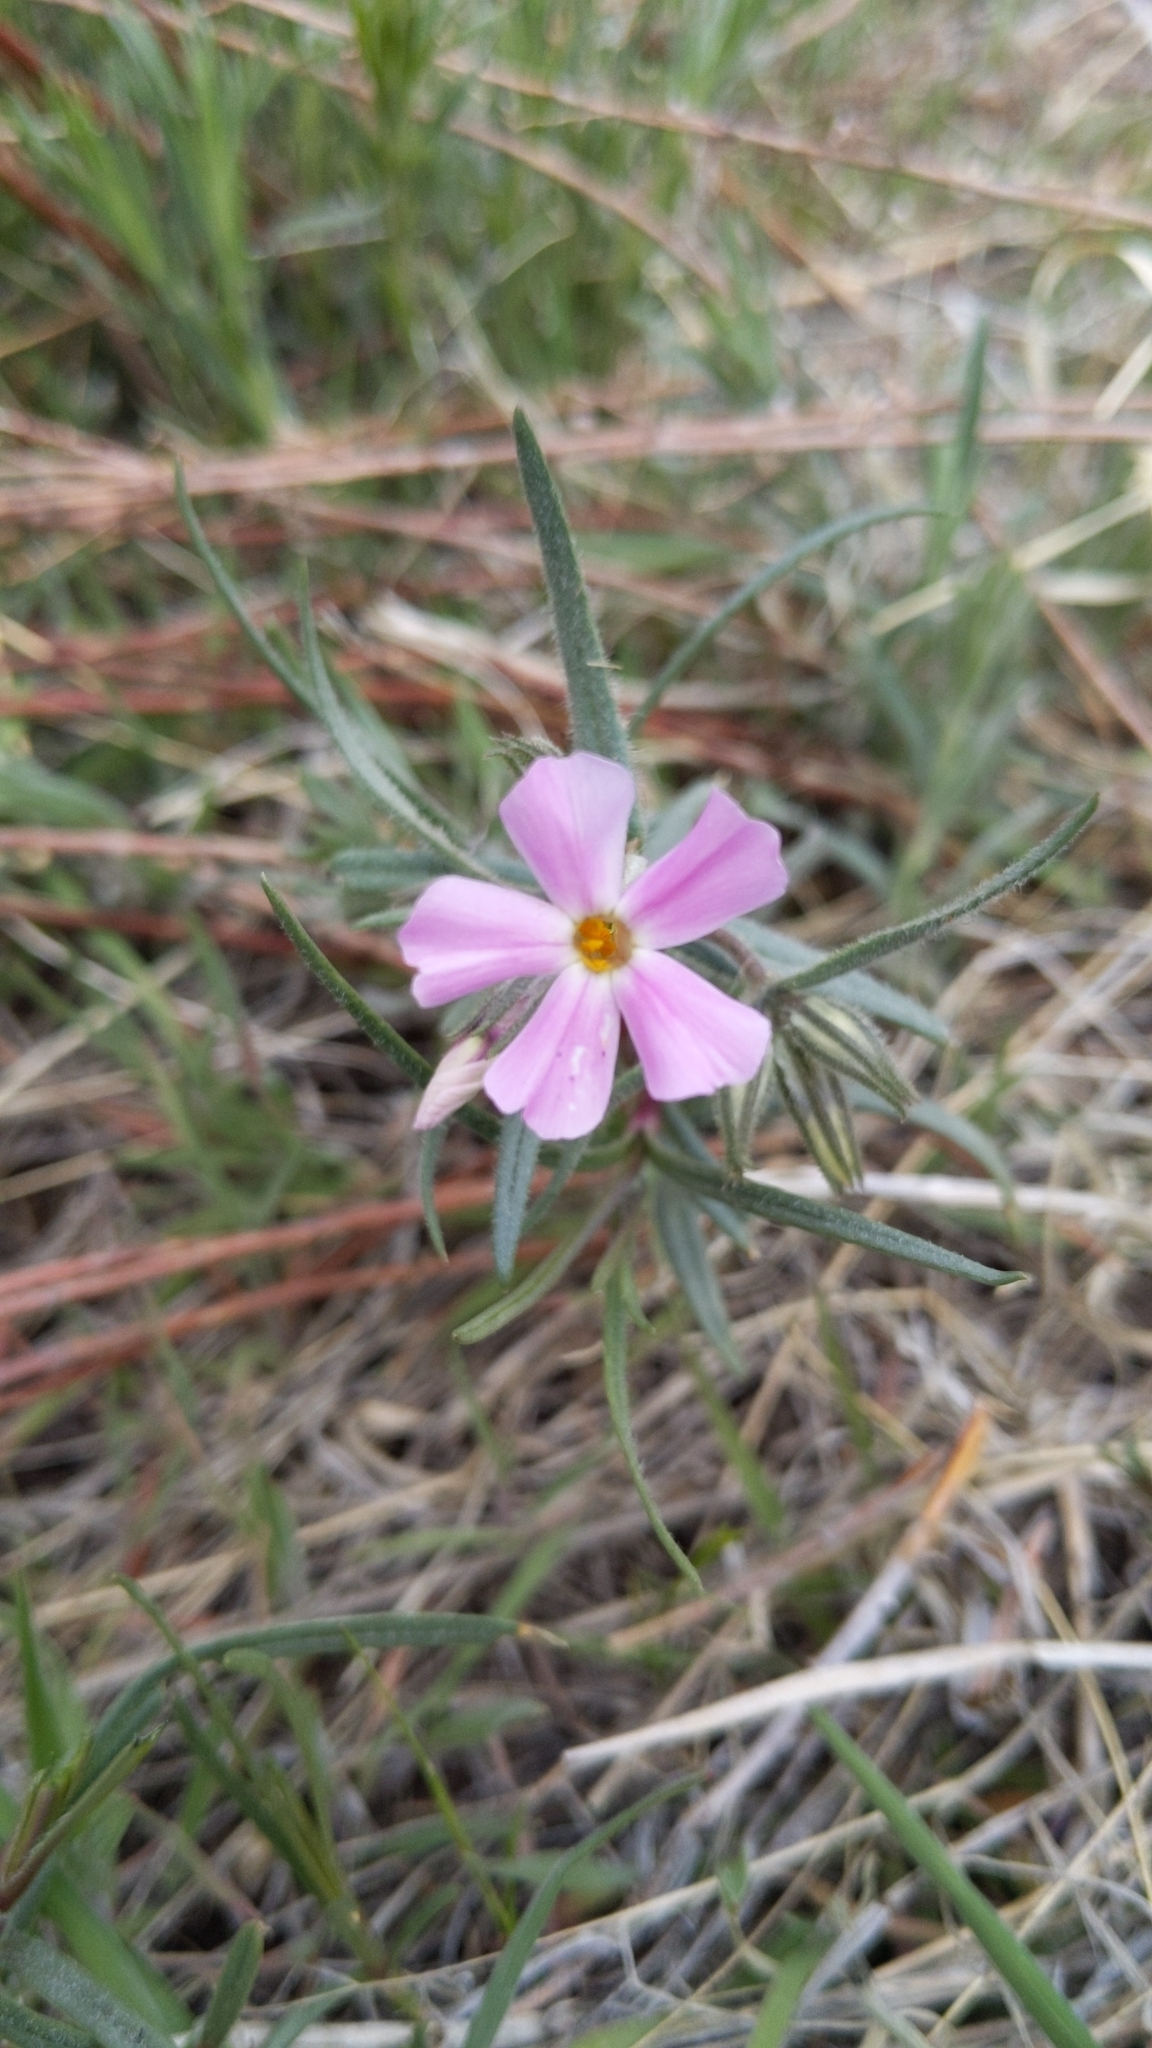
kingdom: Plantae
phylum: Tracheophyta
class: Magnoliopsida
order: Ericales
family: Polemoniaceae
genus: Phlox
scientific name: Phlox longifolia
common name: Longleaf phlox
